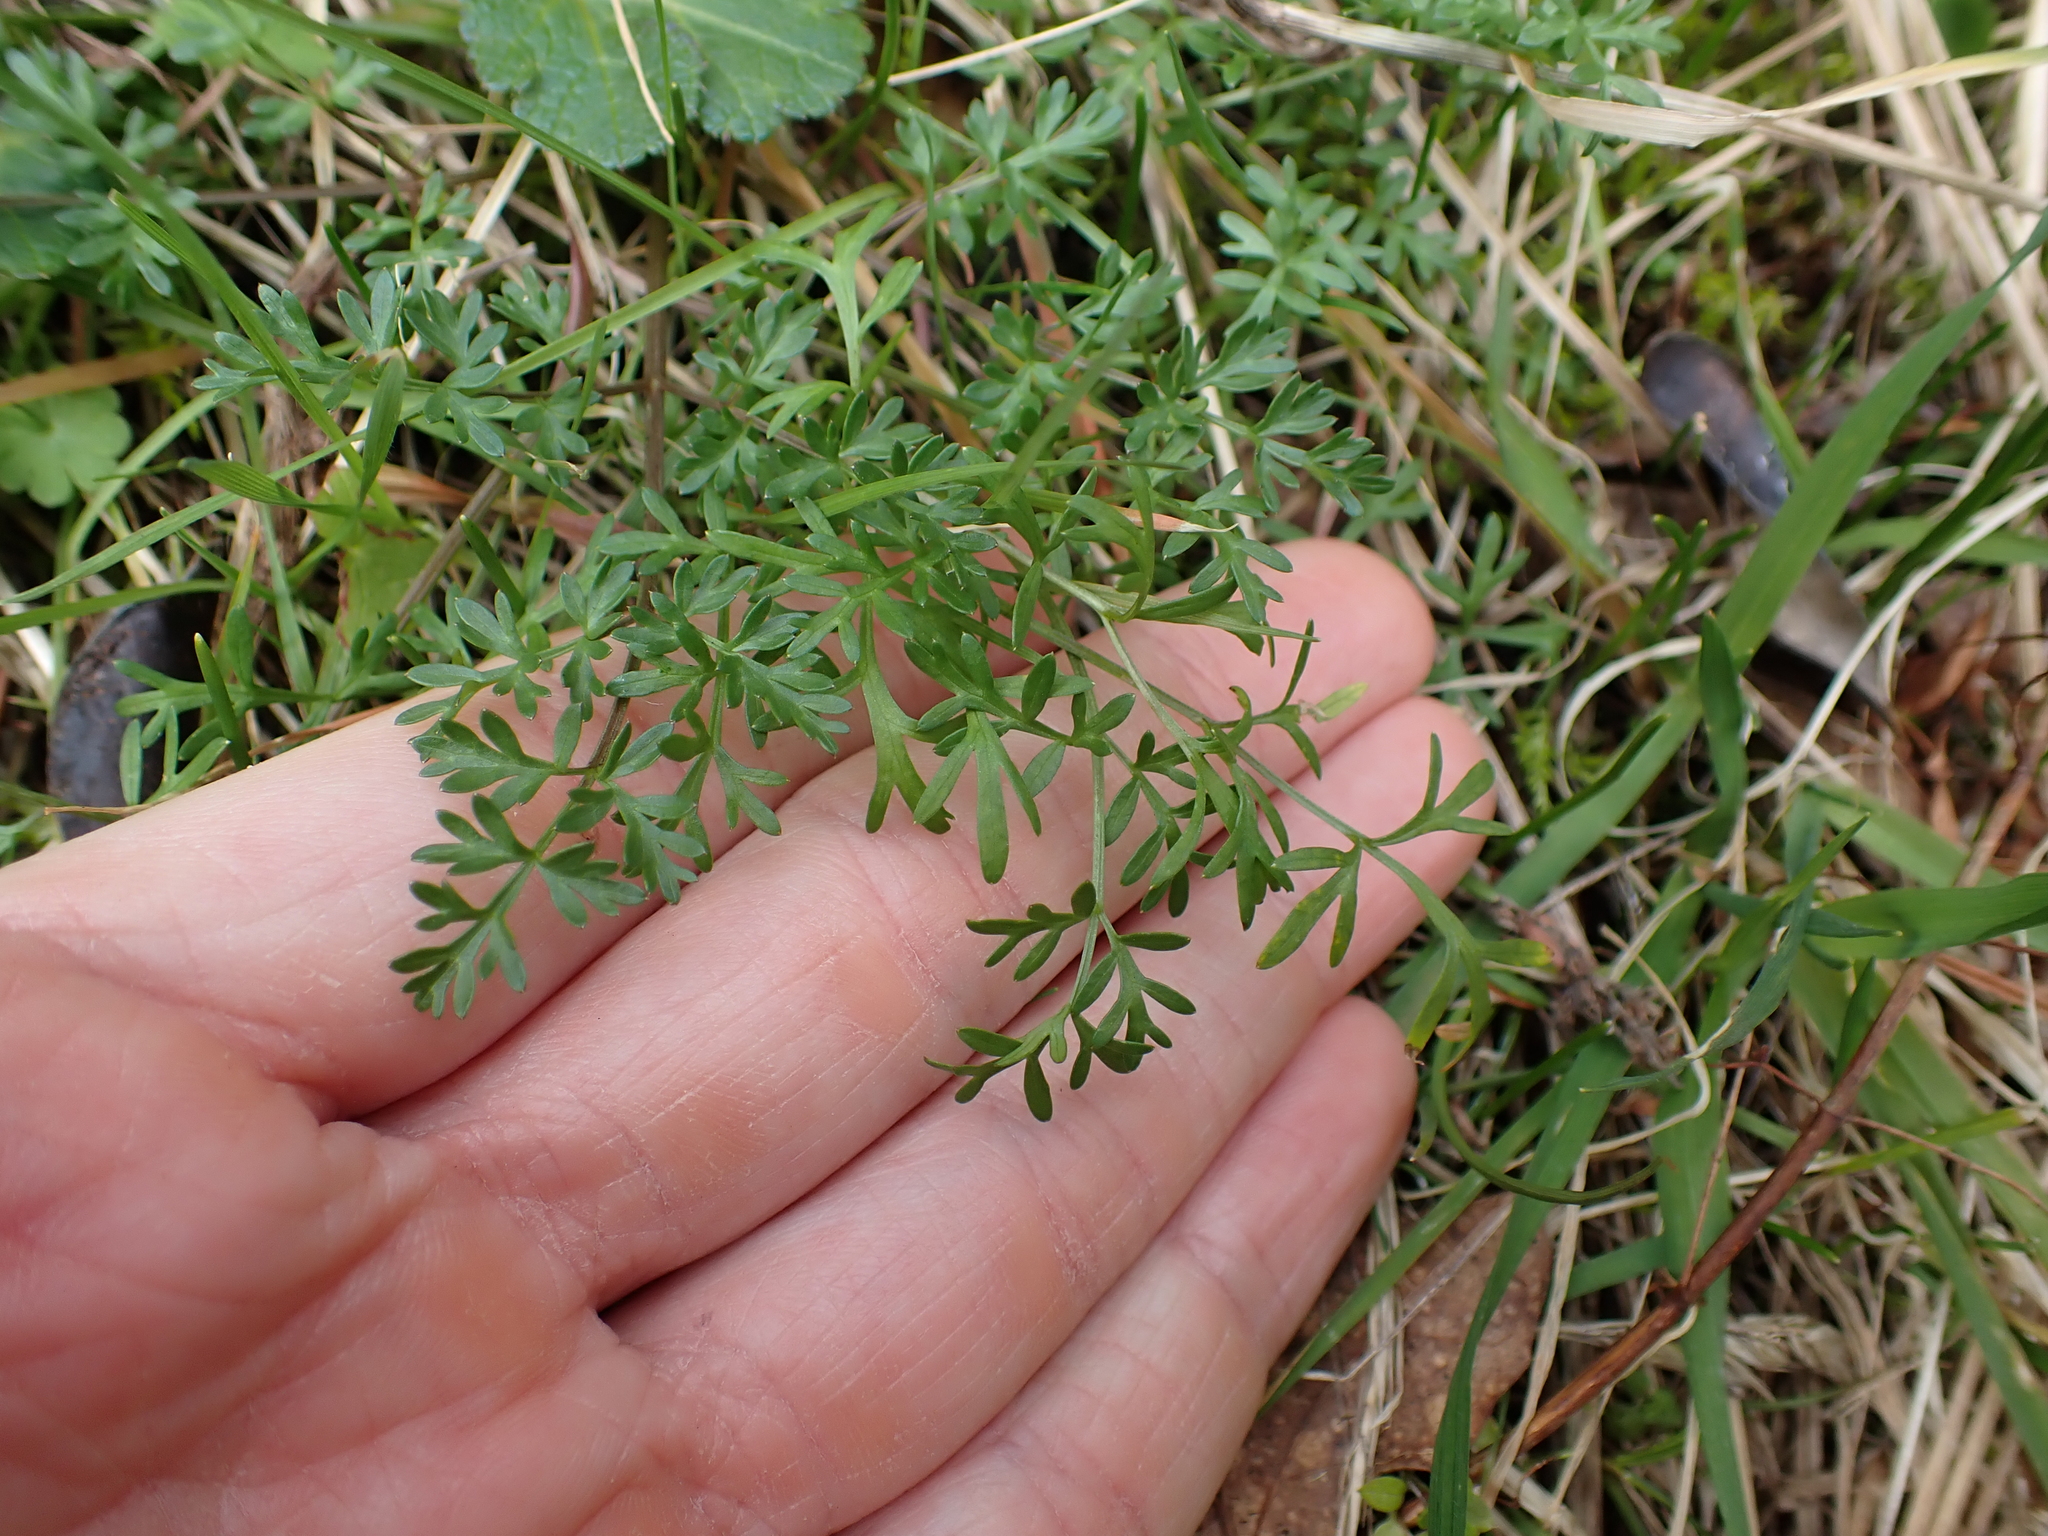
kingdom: Plantae
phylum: Tracheophyta
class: Magnoliopsida
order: Apiales
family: Apiaceae
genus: Lomatium
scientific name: Lomatium utriculatum
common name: Fine-leaf desert-parsley
